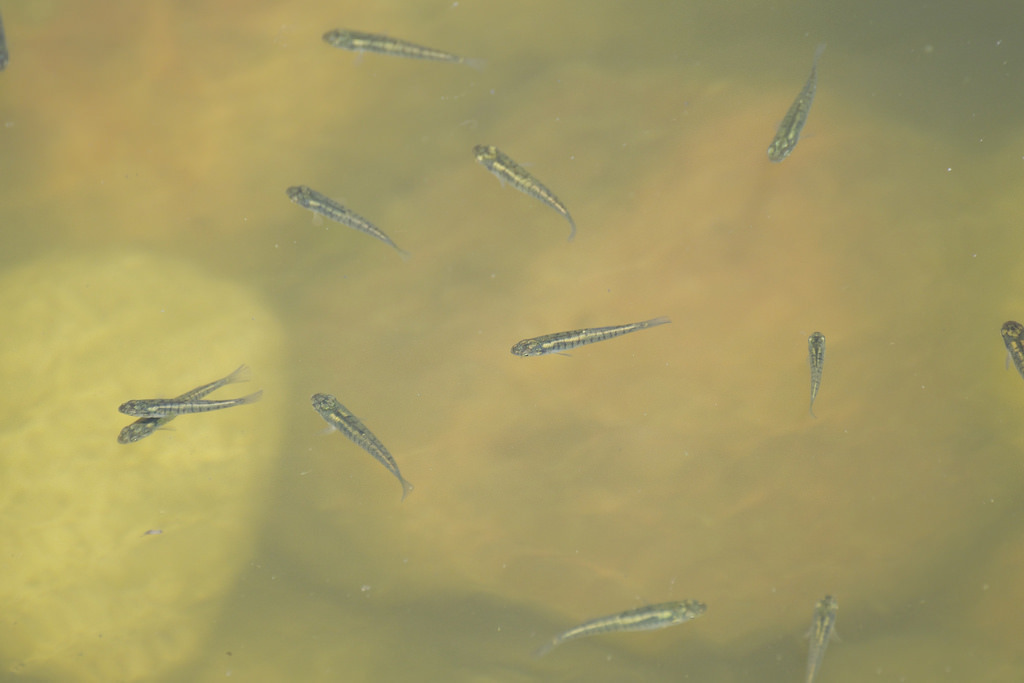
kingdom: Animalia
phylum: Chordata
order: Cyprinodontiformes
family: Fundulidae
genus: Fundulus
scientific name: Fundulus diaphanus
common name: Banded killifish
